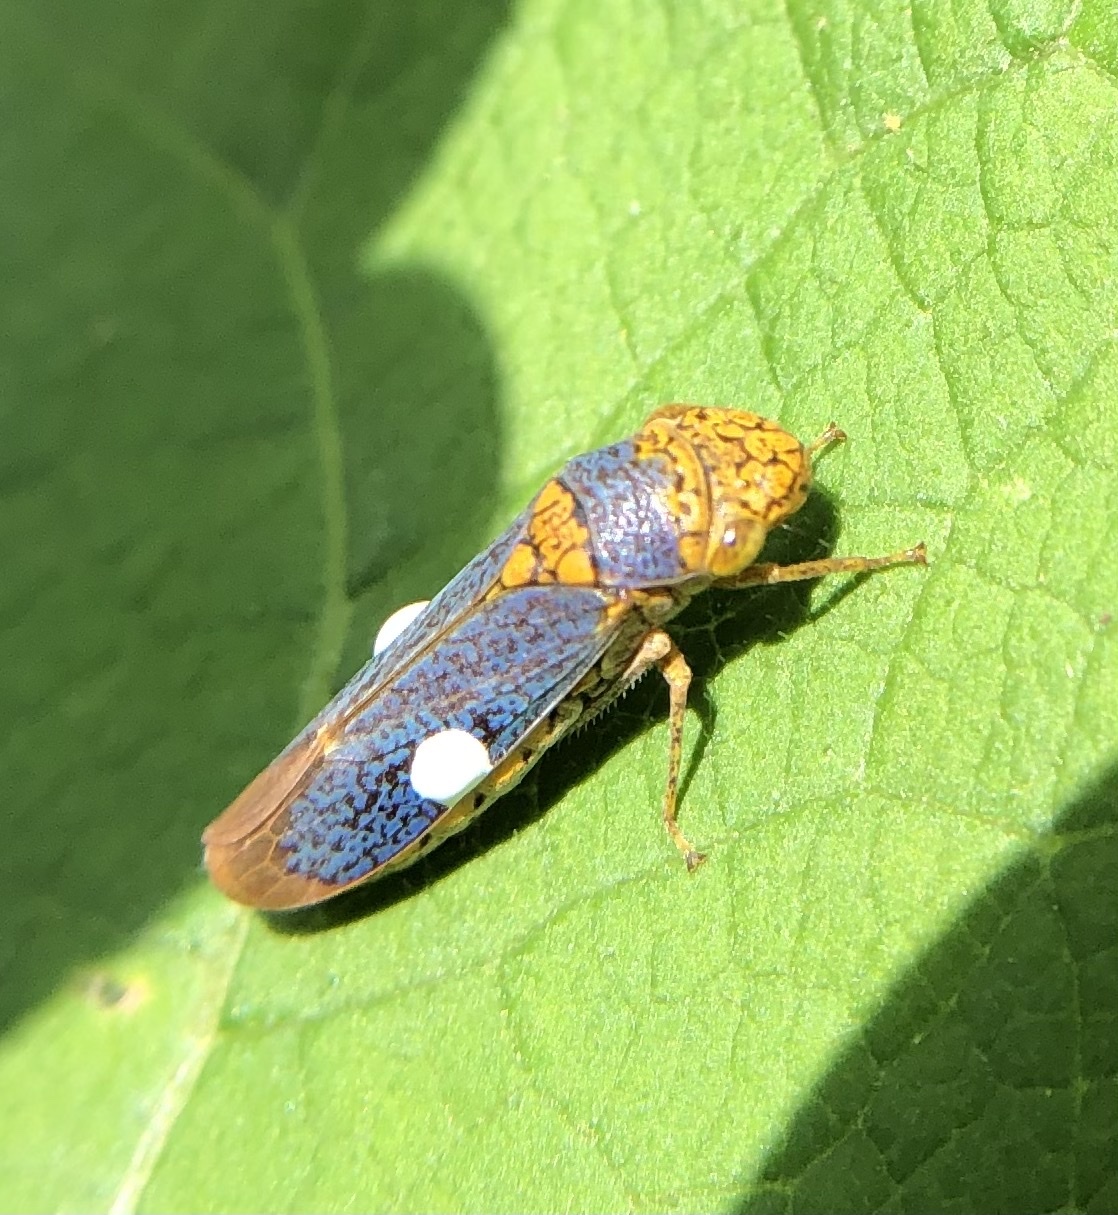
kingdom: Animalia
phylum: Arthropoda
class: Insecta
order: Hemiptera
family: Cicadellidae
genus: Oncometopia
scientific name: Oncometopia orbona
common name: Broad-headed sharpshooter
